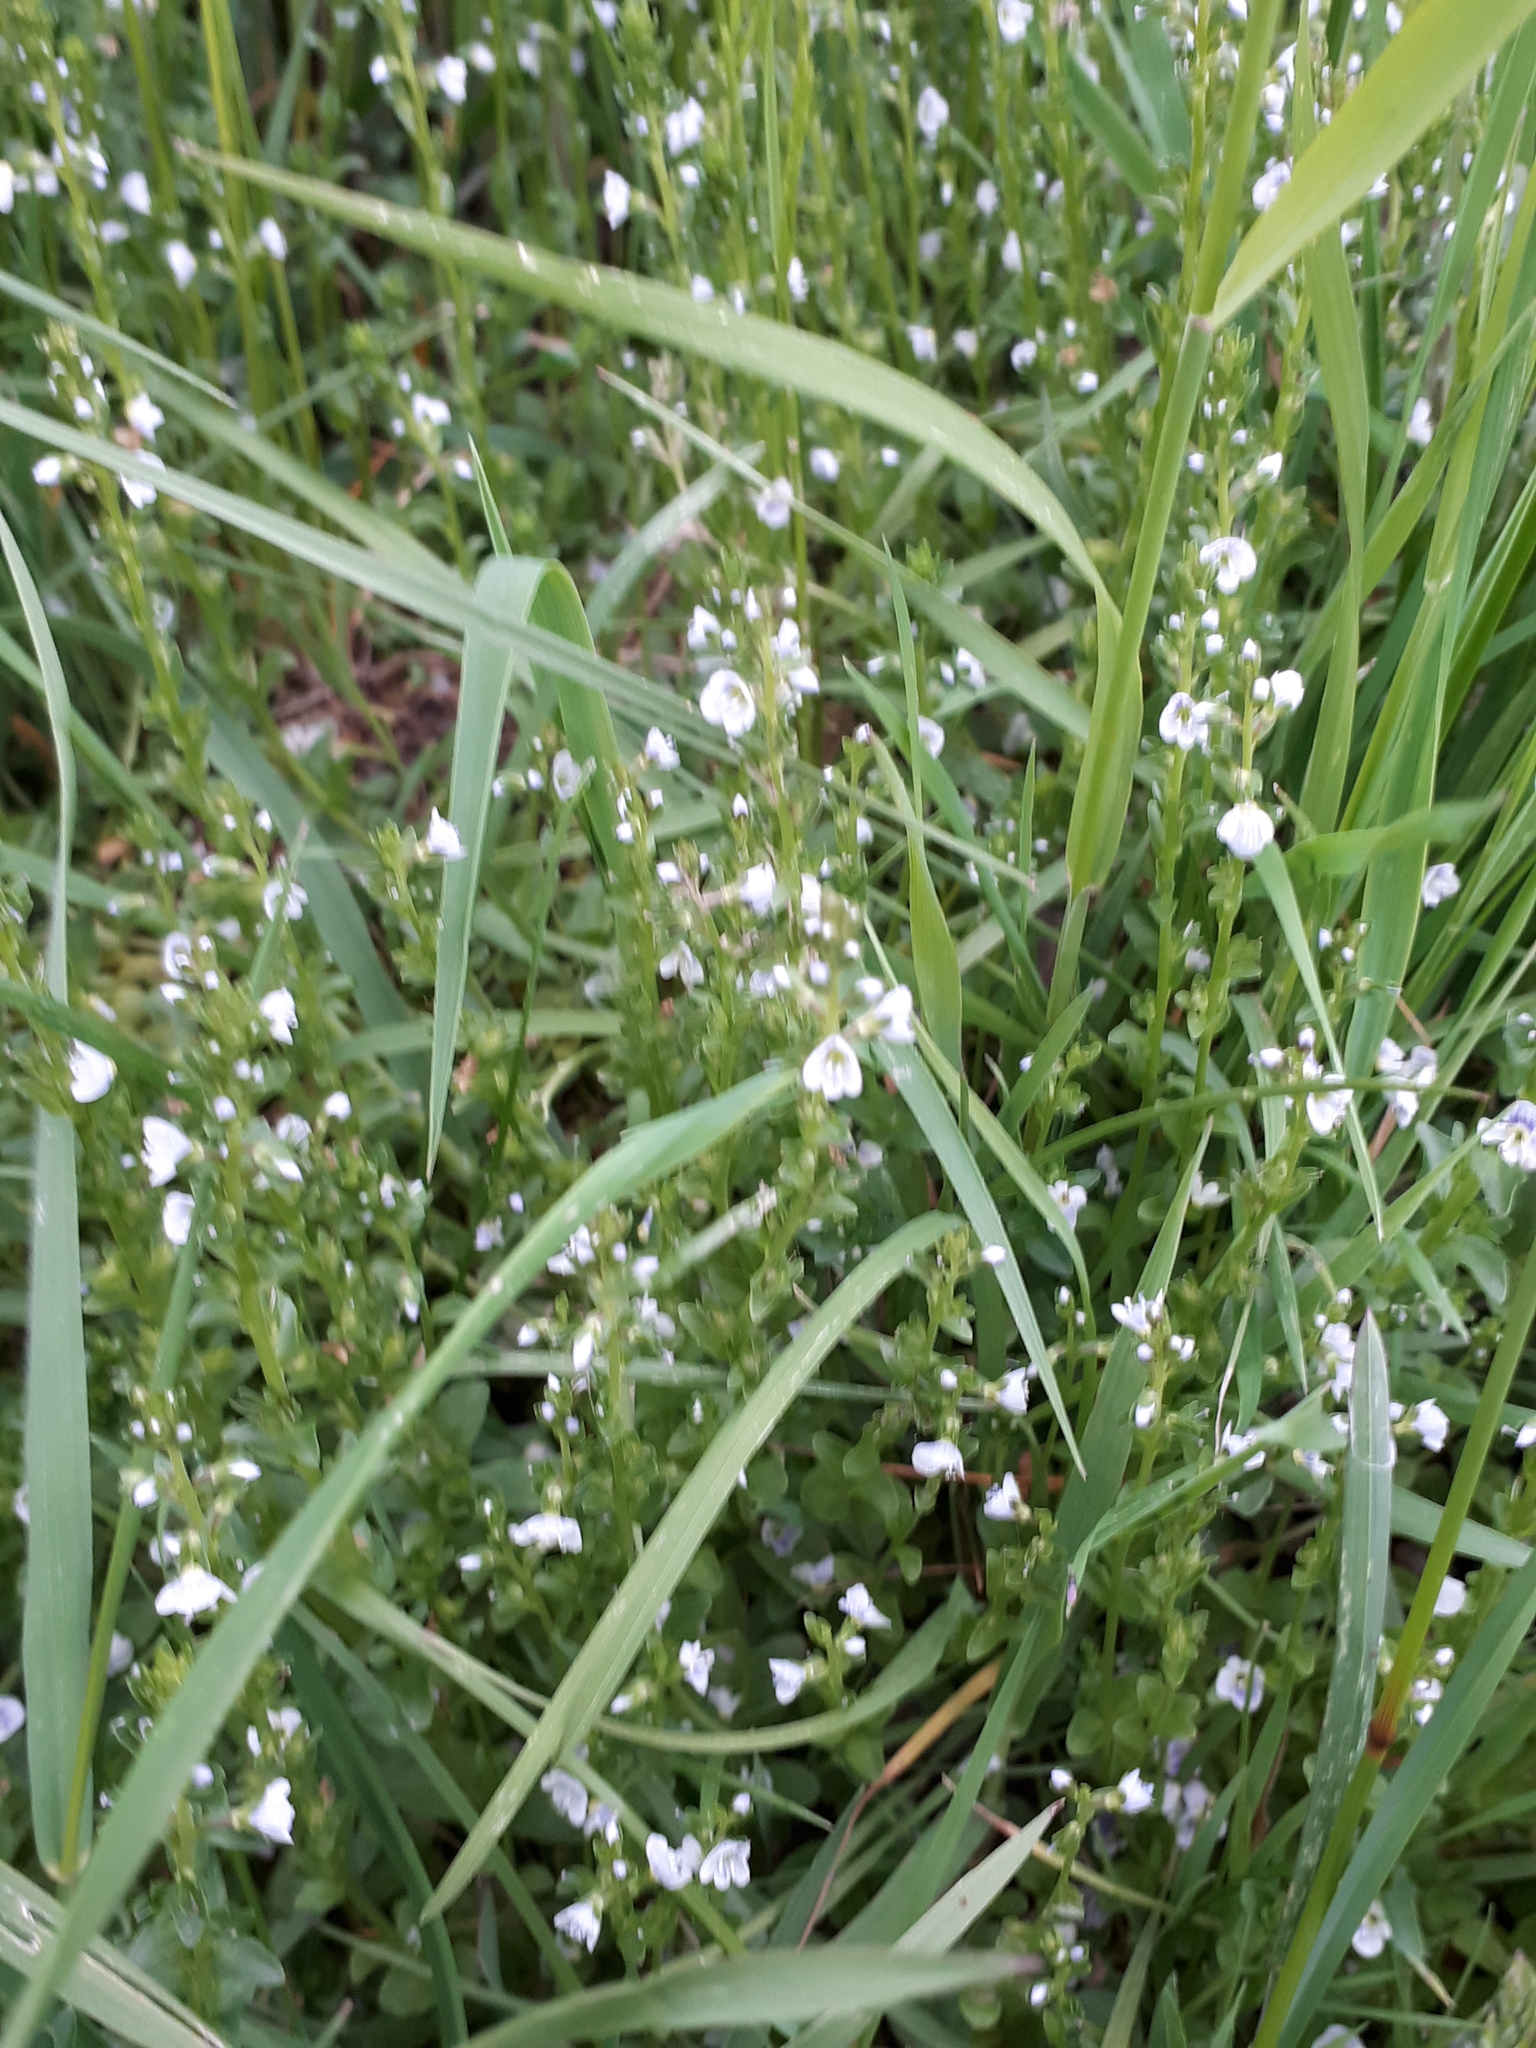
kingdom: Plantae
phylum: Tracheophyta
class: Magnoliopsida
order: Lamiales
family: Plantaginaceae
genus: Veronica
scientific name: Veronica serpyllifolia
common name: Thyme-leaved speedwell
